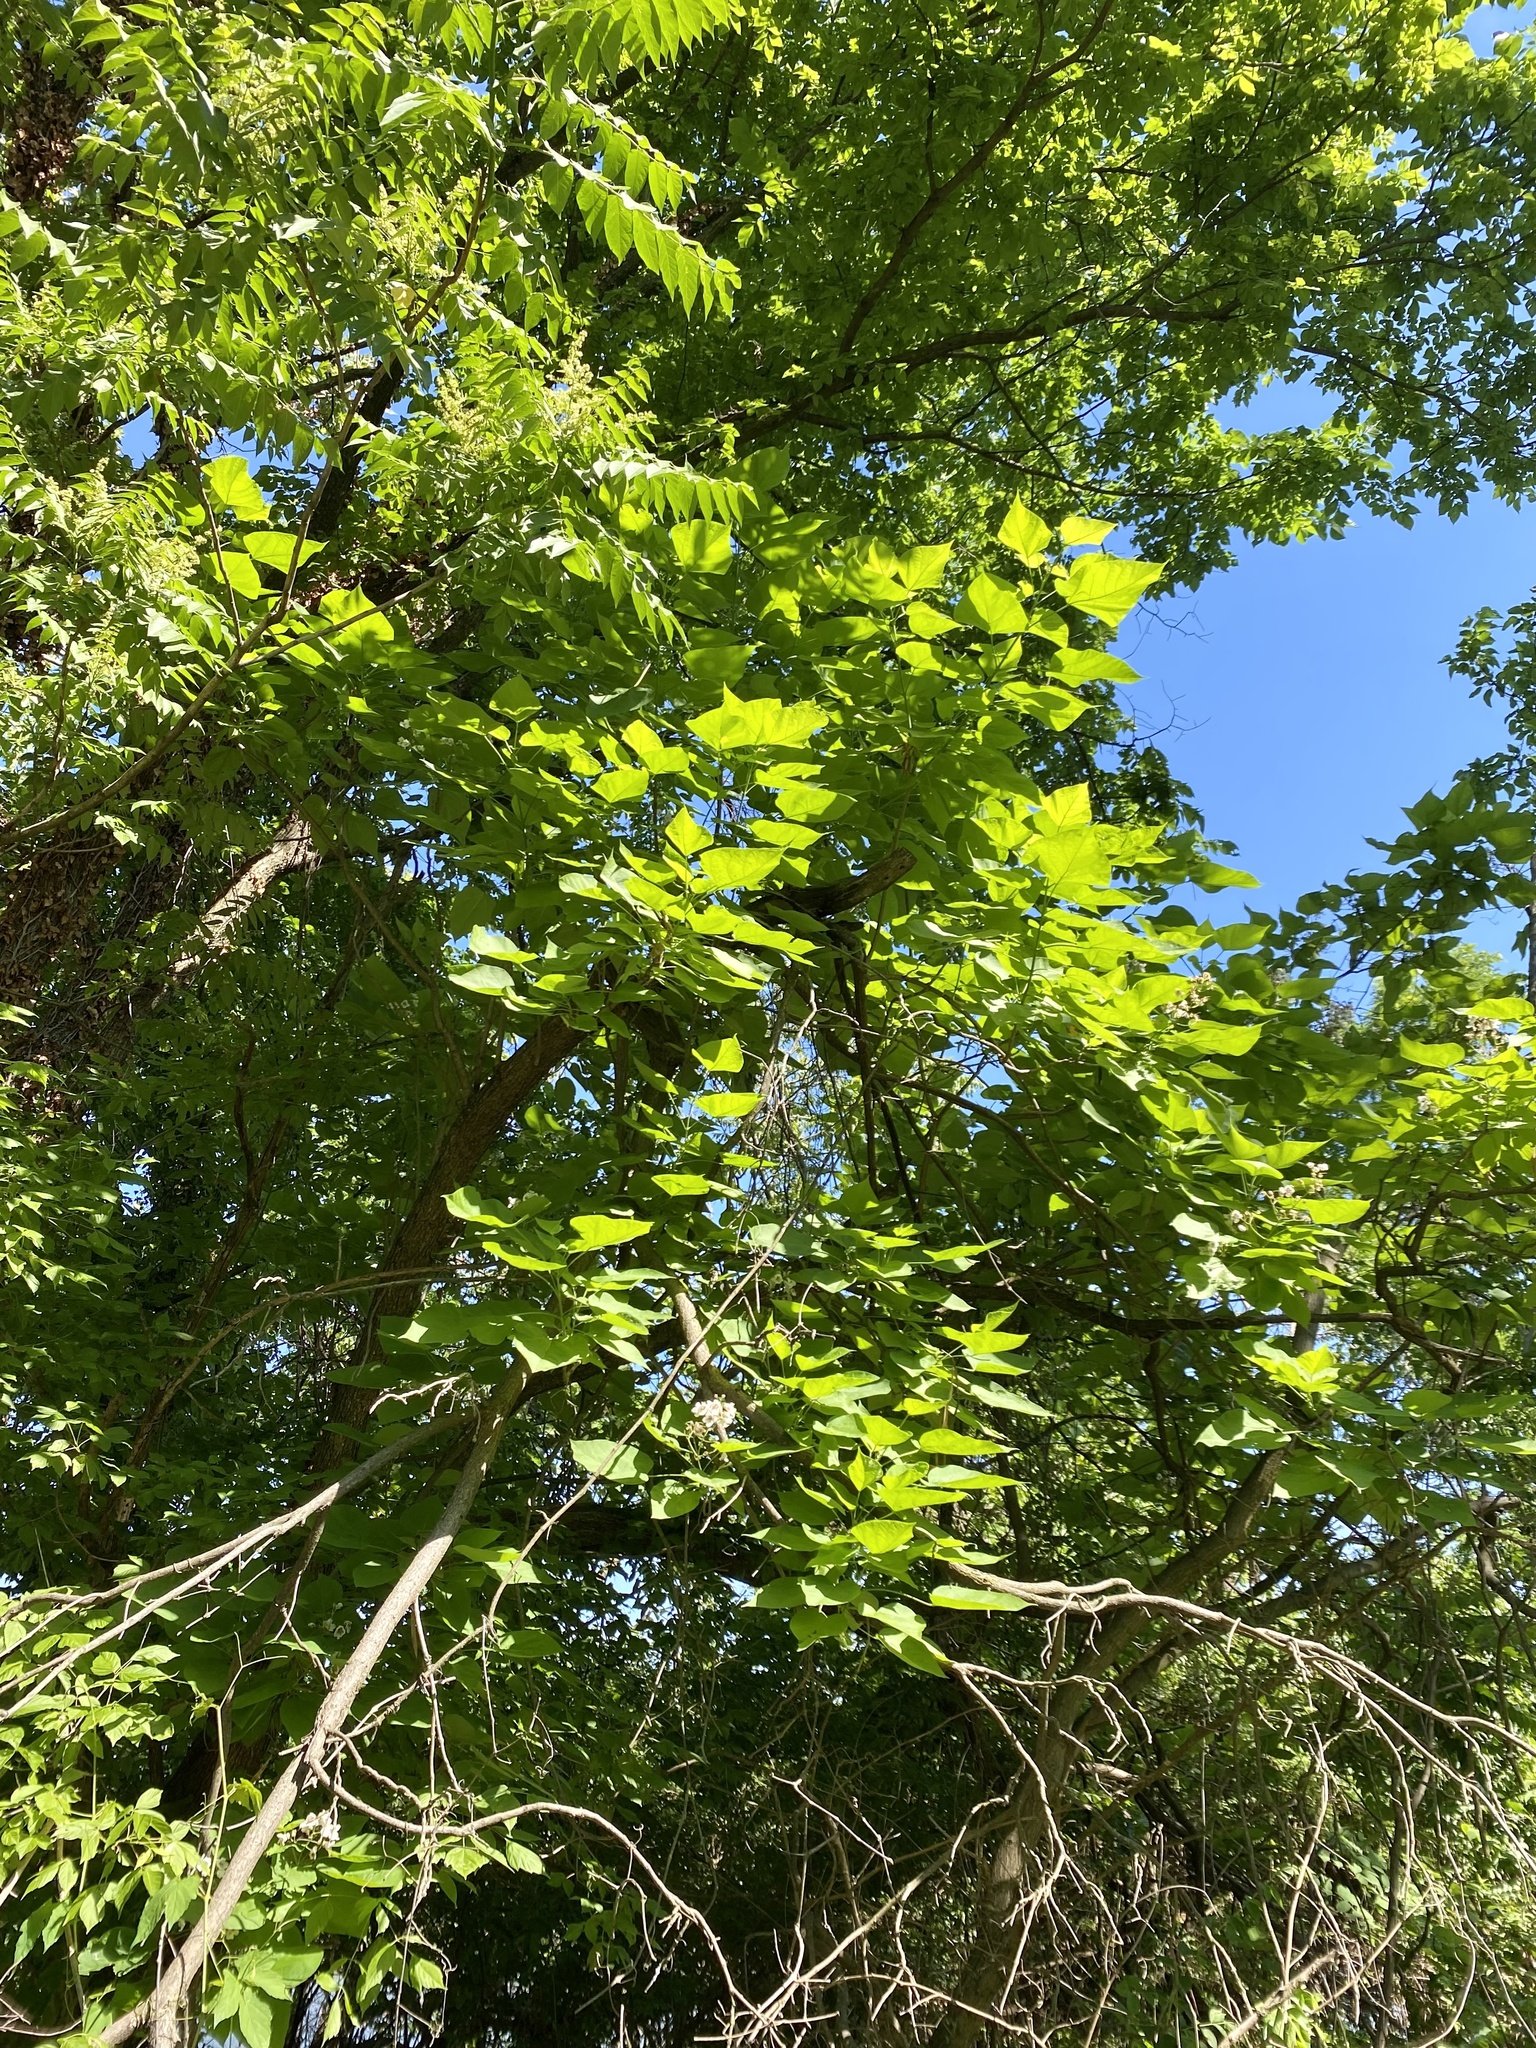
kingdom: Plantae
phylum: Tracheophyta
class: Magnoliopsida
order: Lamiales
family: Bignoniaceae
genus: Catalpa
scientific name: Catalpa bignonioides
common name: Southern catalpa
